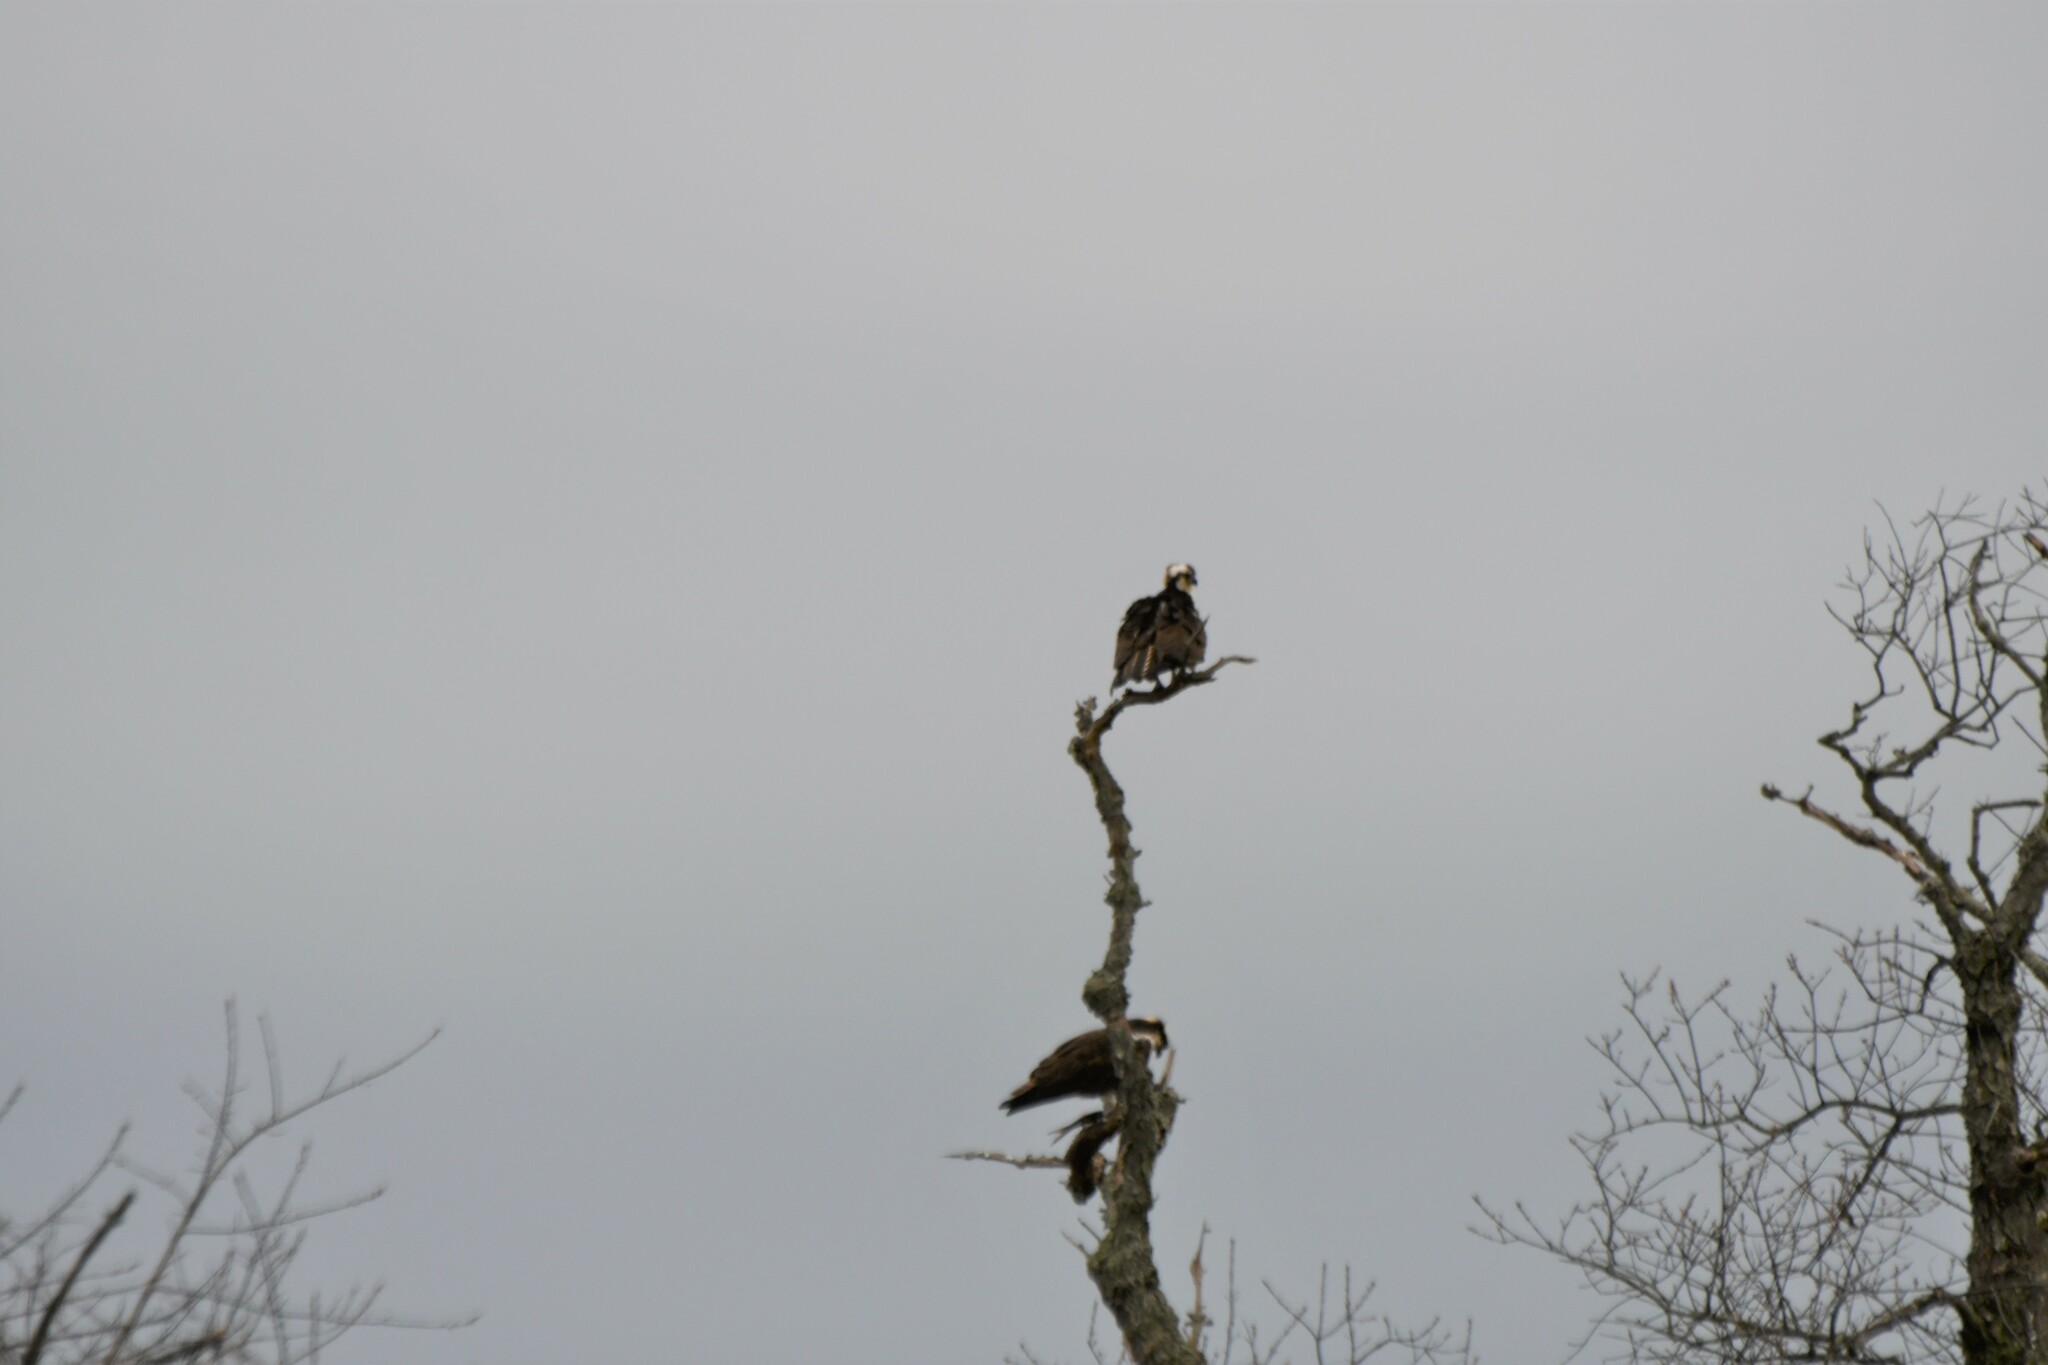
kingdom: Animalia
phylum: Chordata
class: Aves
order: Accipitriformes
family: Pandionidae
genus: Pandion
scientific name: Pandion haliaetus
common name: Osprey
